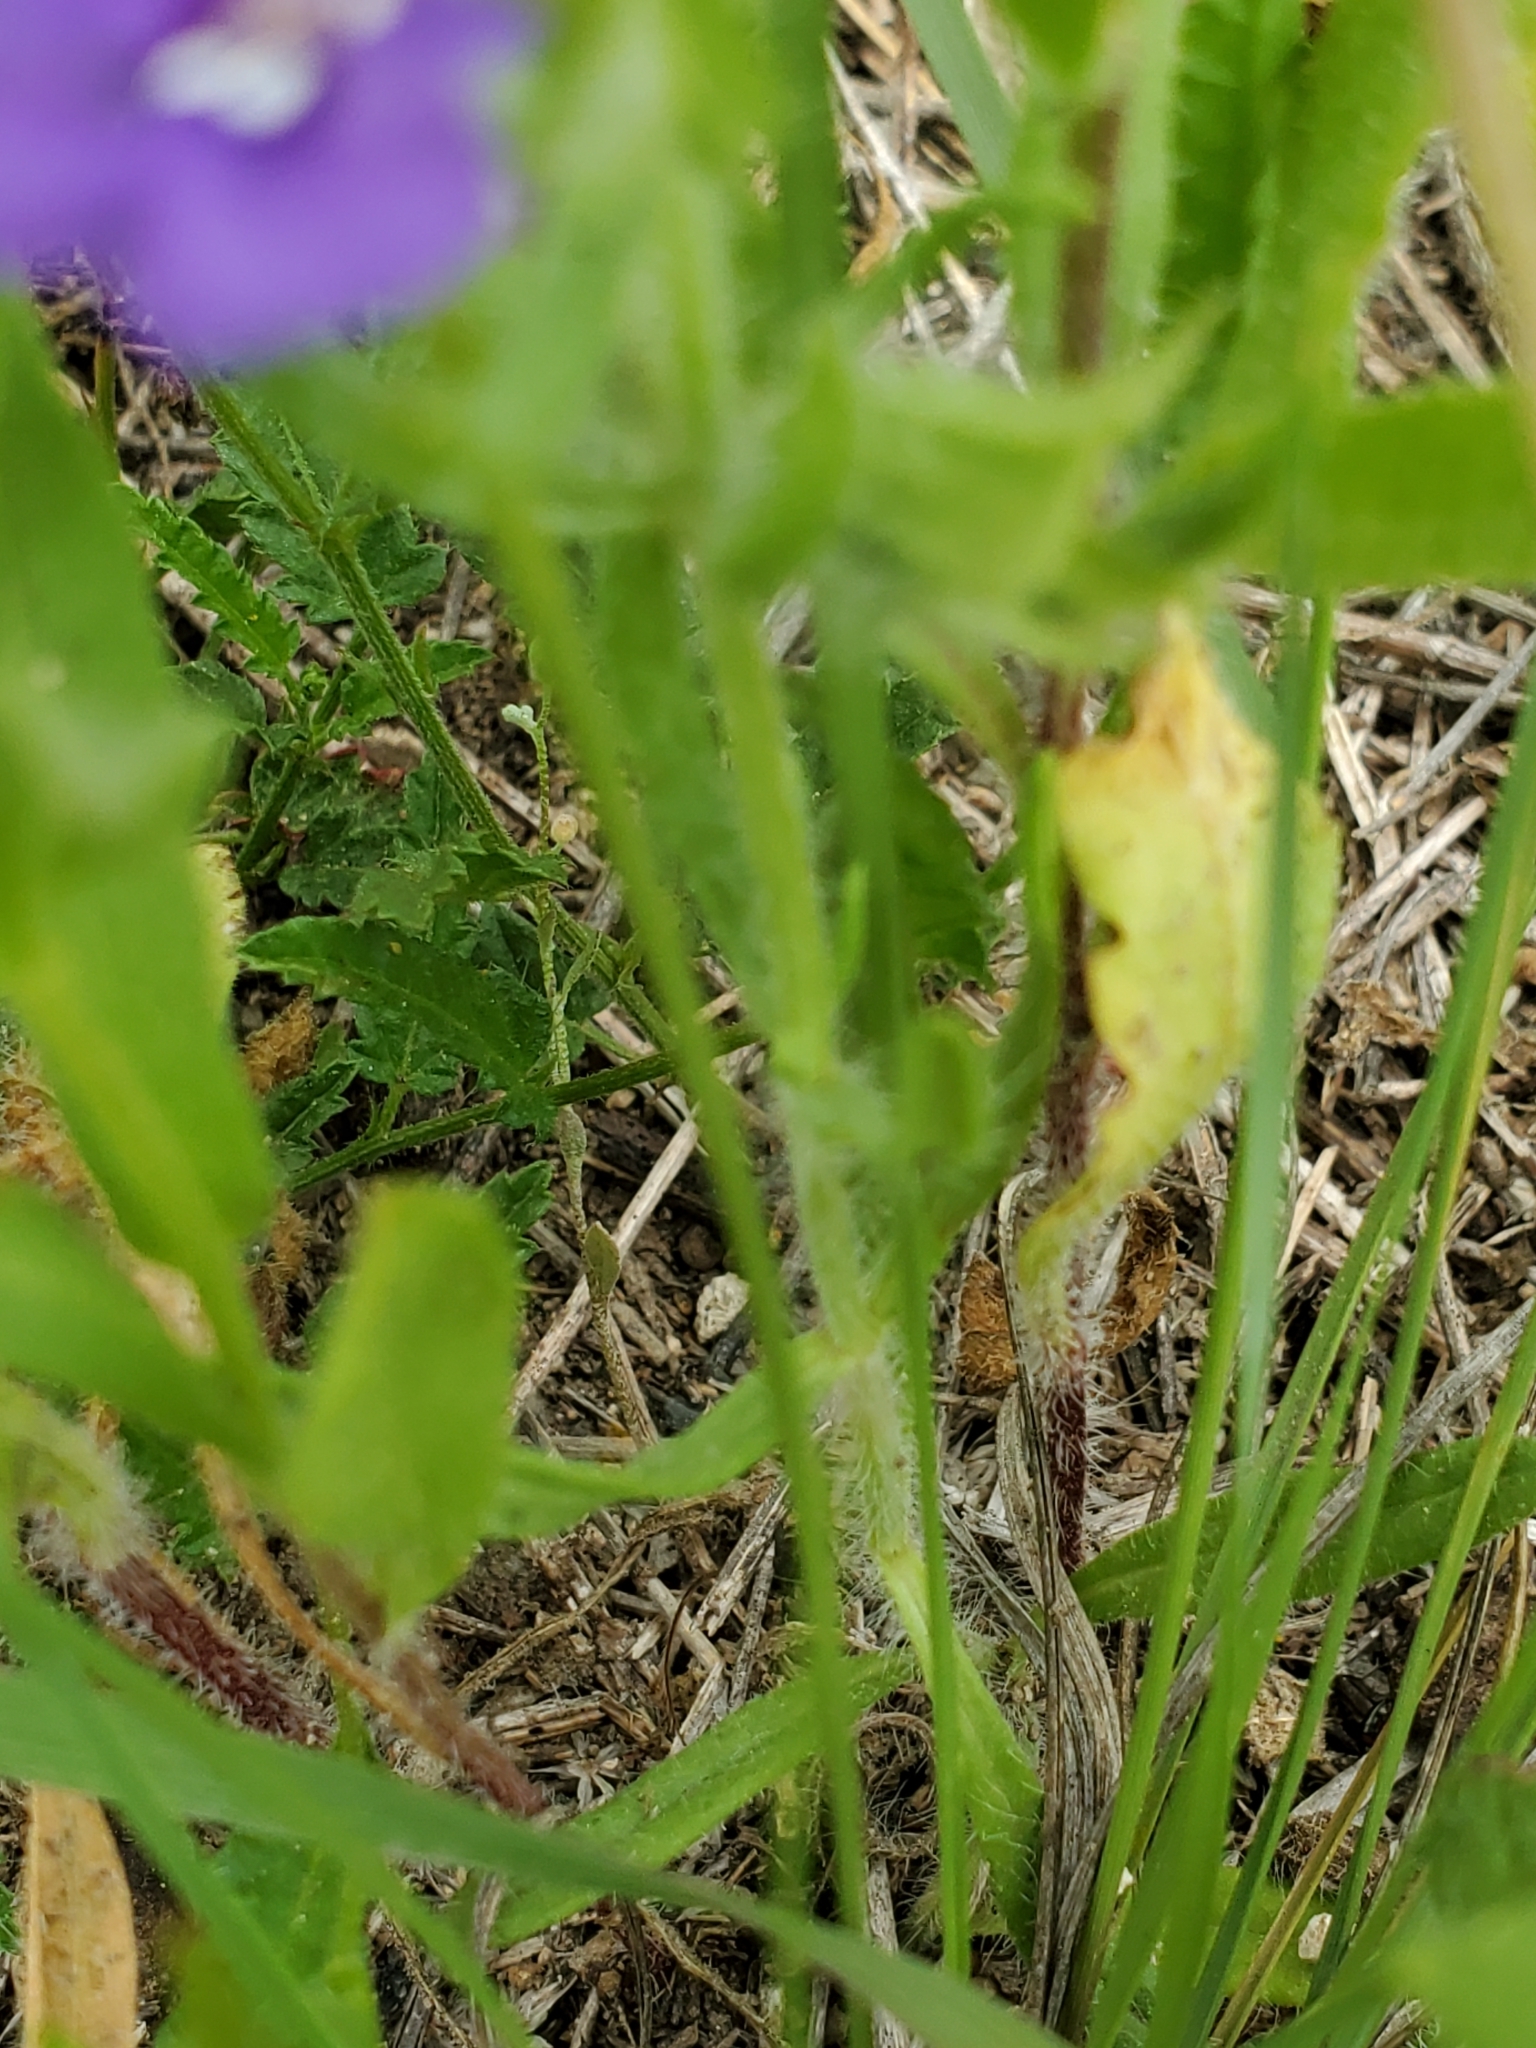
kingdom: Plantae
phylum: Tracheophyta
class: Magnoliopsida
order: Lamiales
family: Lamiaceae
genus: Salvia
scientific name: Salvia texana
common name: Texas sage
